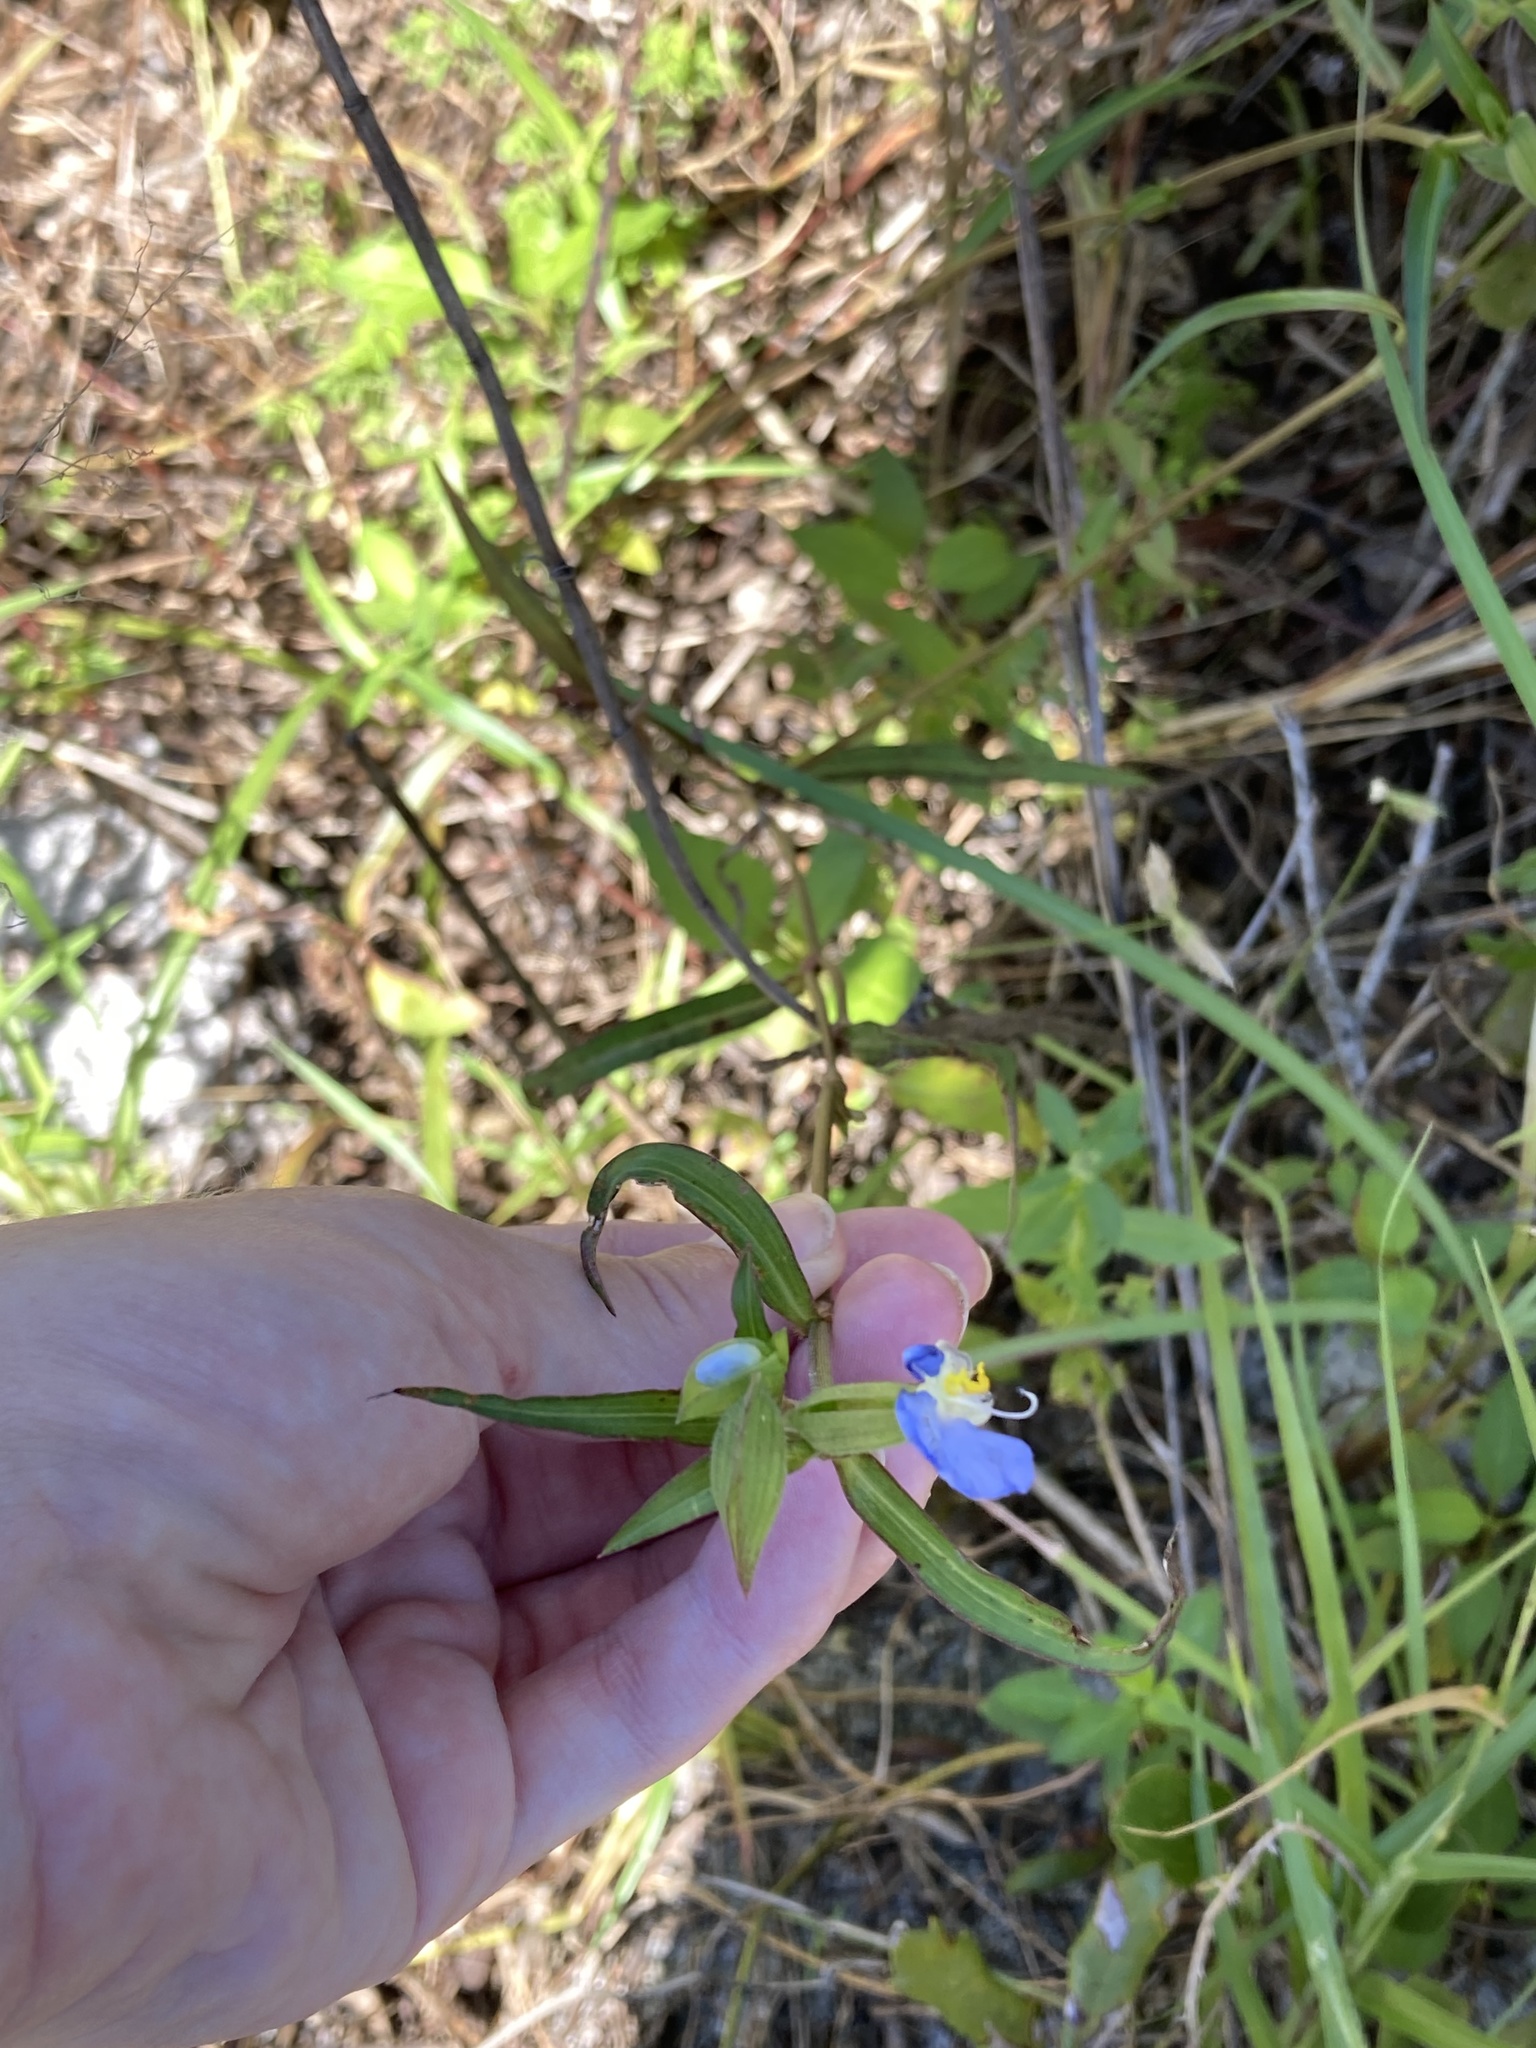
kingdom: Plantae
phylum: Tracheophyta
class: Liliopsida
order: Commelinales
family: Commelinaceae
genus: Commelina
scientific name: Commelina erecta
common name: Blousel blommetjie
